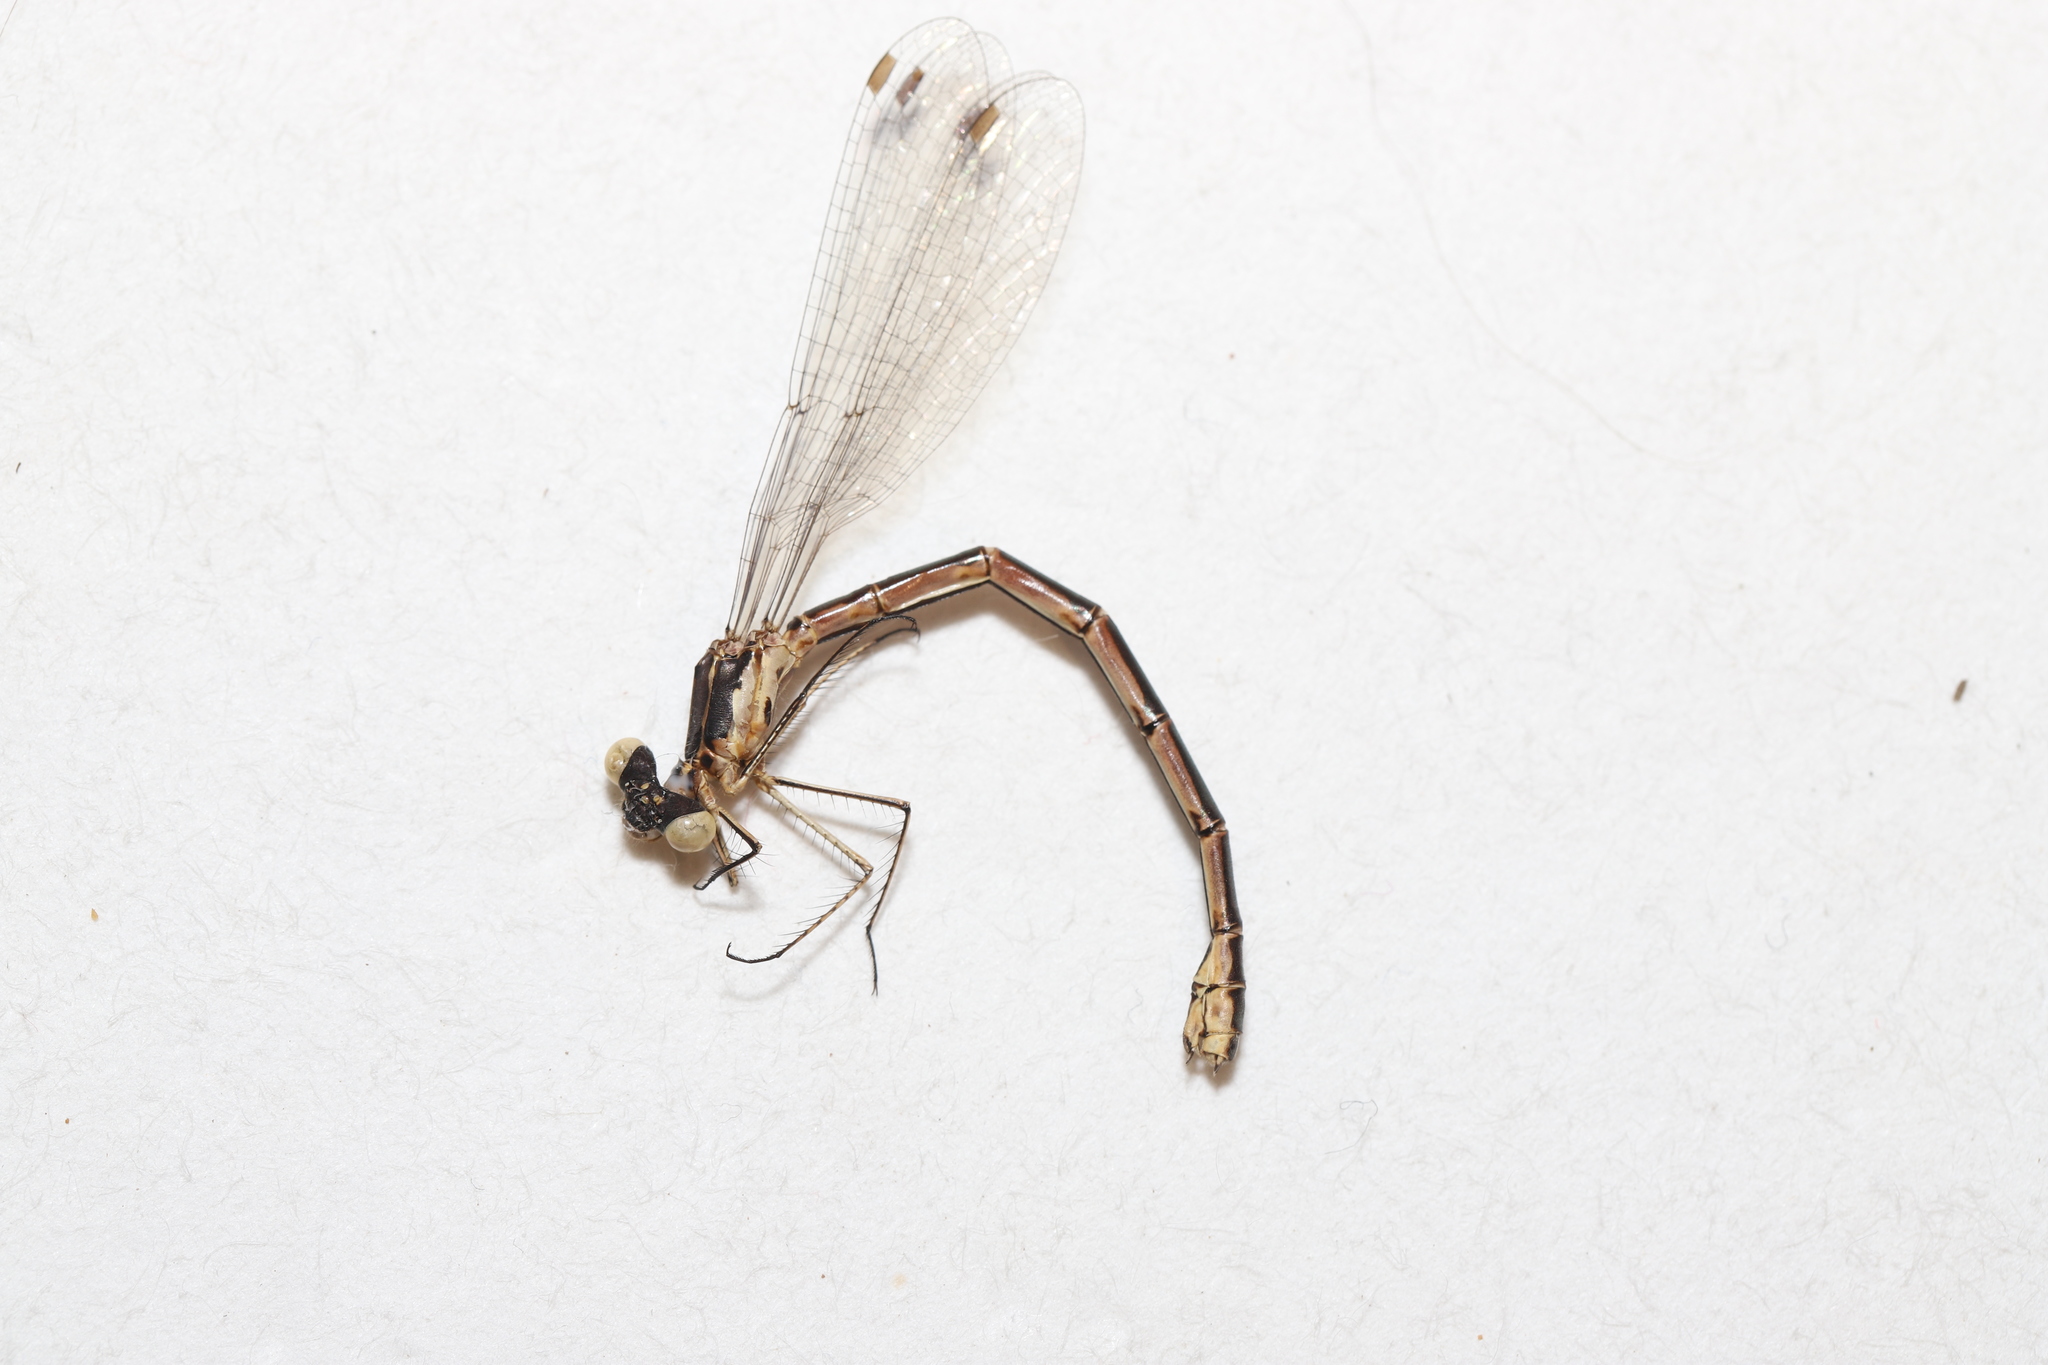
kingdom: Animalia
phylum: Arthropoda
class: Insecta
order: Odonata
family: Lestidae
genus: Lestes
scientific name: Lestes congener
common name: Spotted spreadwing
